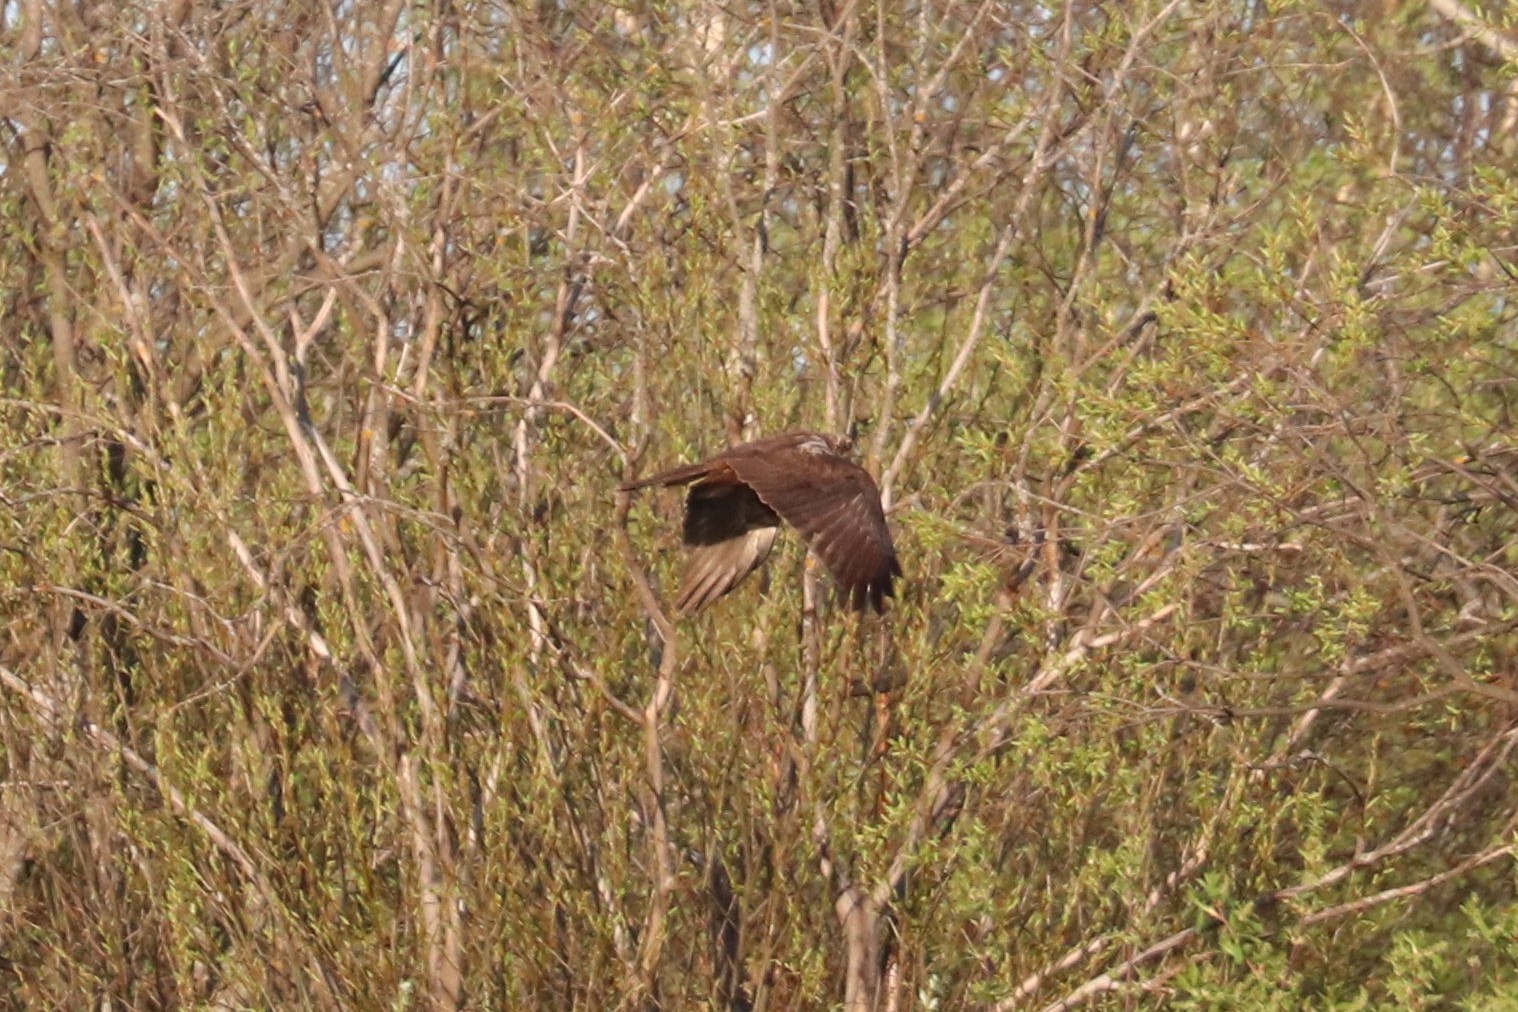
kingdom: Animalia
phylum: Chordata
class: Aves
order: Accipitriformes
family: Accipitridae
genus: Circus
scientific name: Circus aeruginosus
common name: Western marsh harrier
